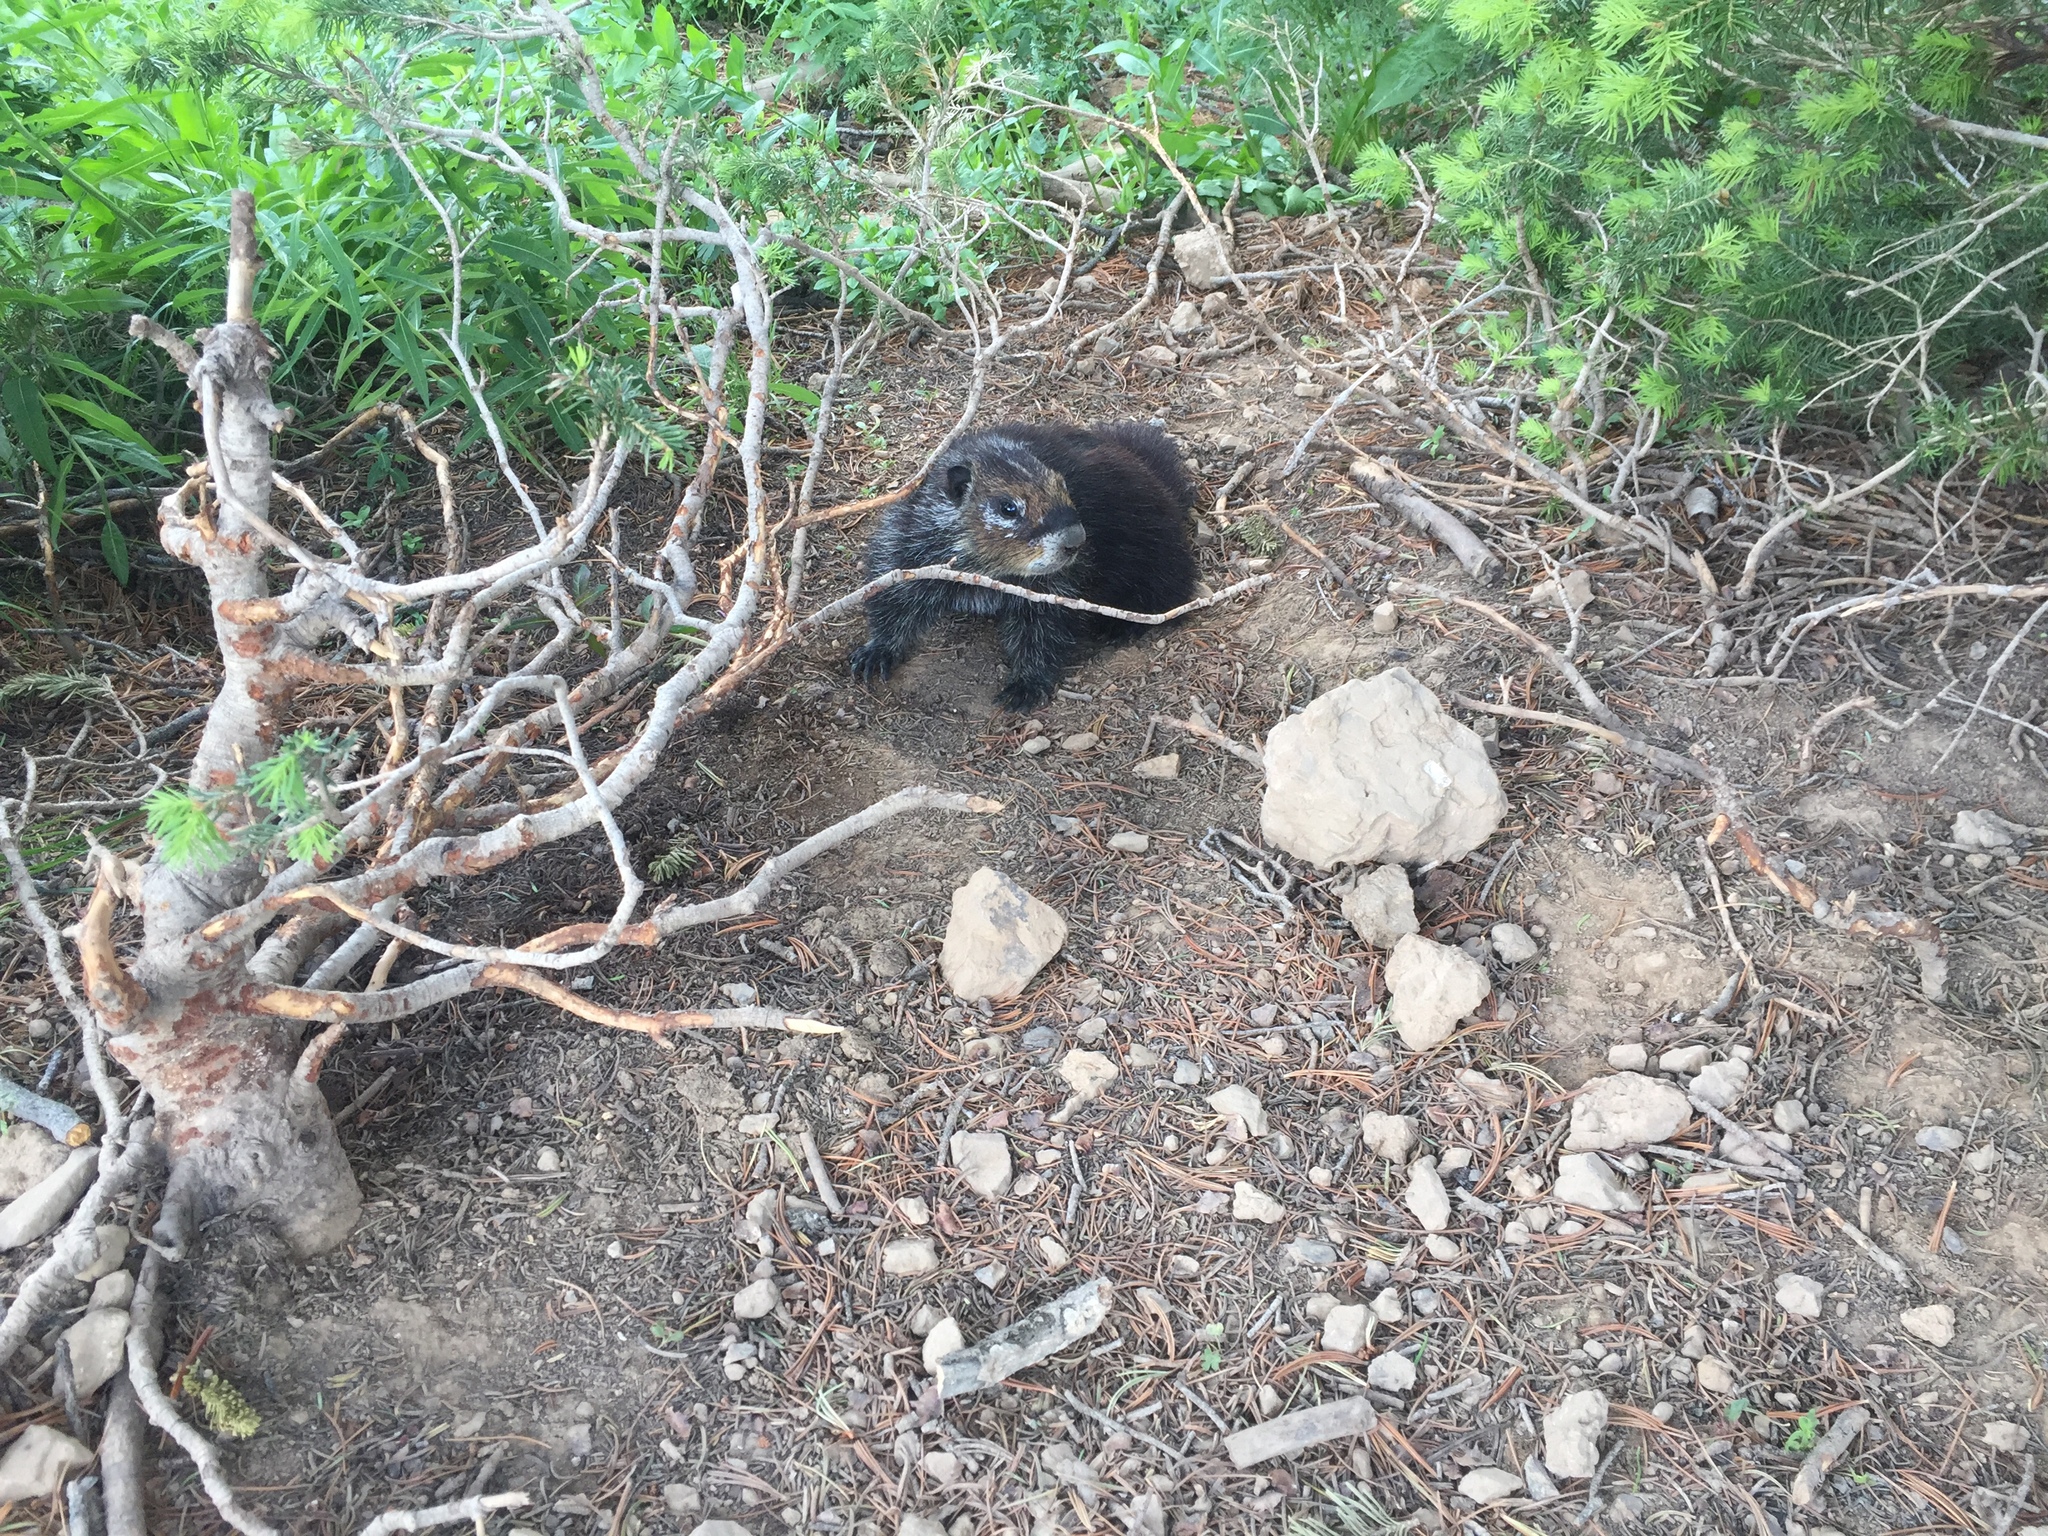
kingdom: Animalia
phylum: Chordata
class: Mammalia
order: Rodentia
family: Sciuridae
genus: Marmota
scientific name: Marmota flaviventris
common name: Yellow-bellied marmot
